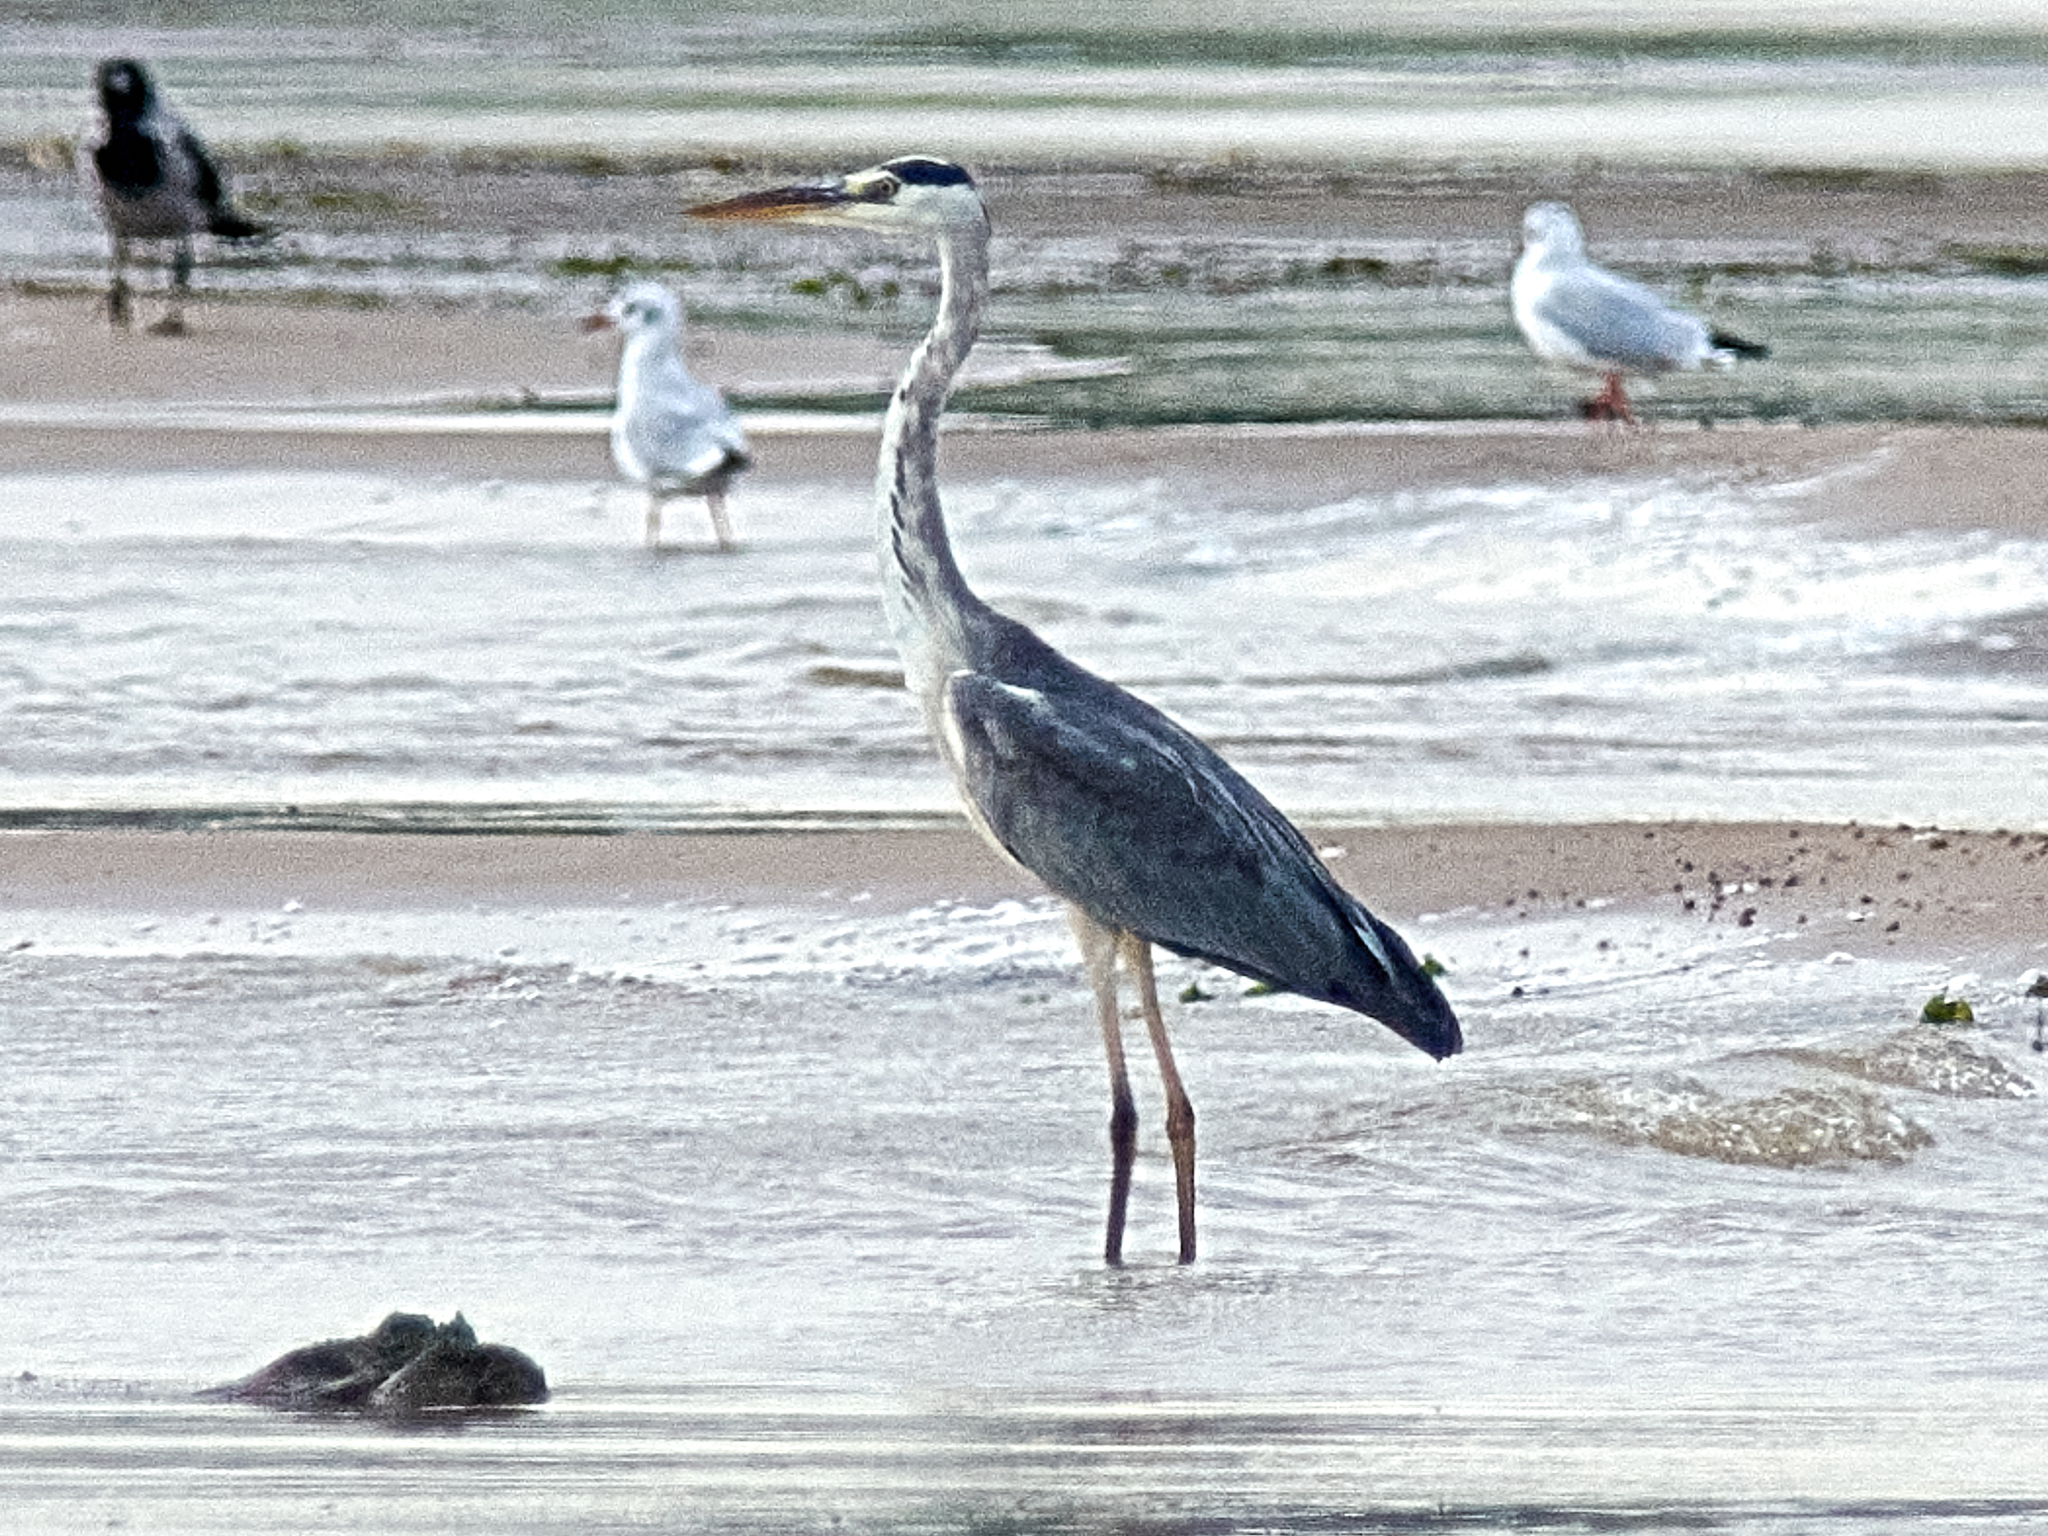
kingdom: Animalia
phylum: Chordata
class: Aves
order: Pelecaniformes
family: Ardeidae
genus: Ardea
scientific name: Ardea cinerea
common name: Grey heron
